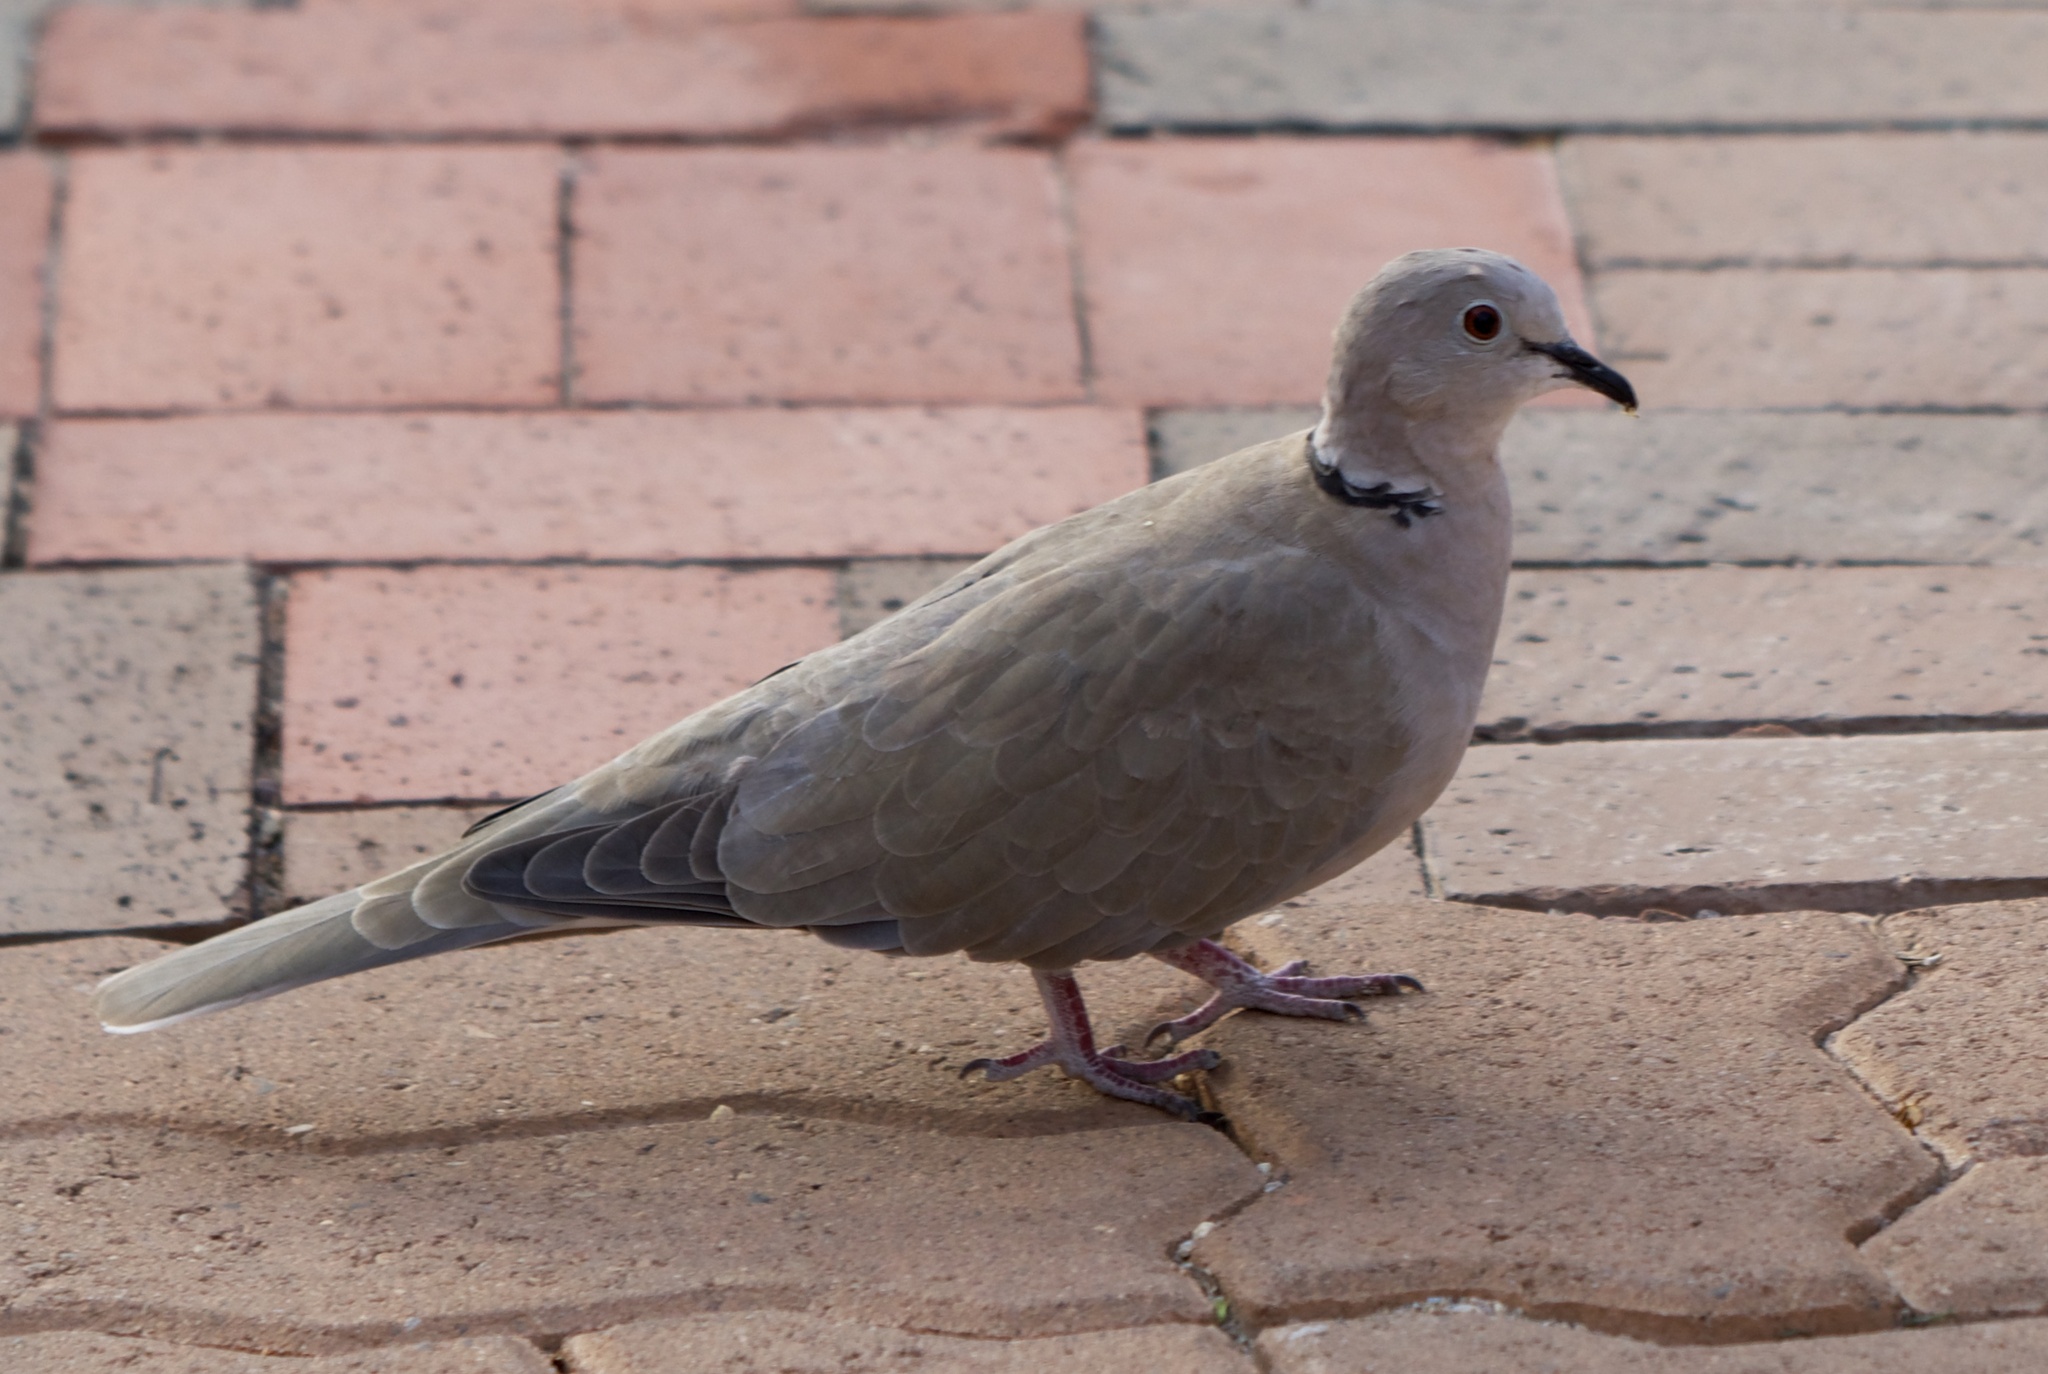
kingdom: Animalia
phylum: Chordata
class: Aves
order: Columbiformes
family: Columbidae
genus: Streptopelia
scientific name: Streptopelia decaocto
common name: Eurasian collared dove
